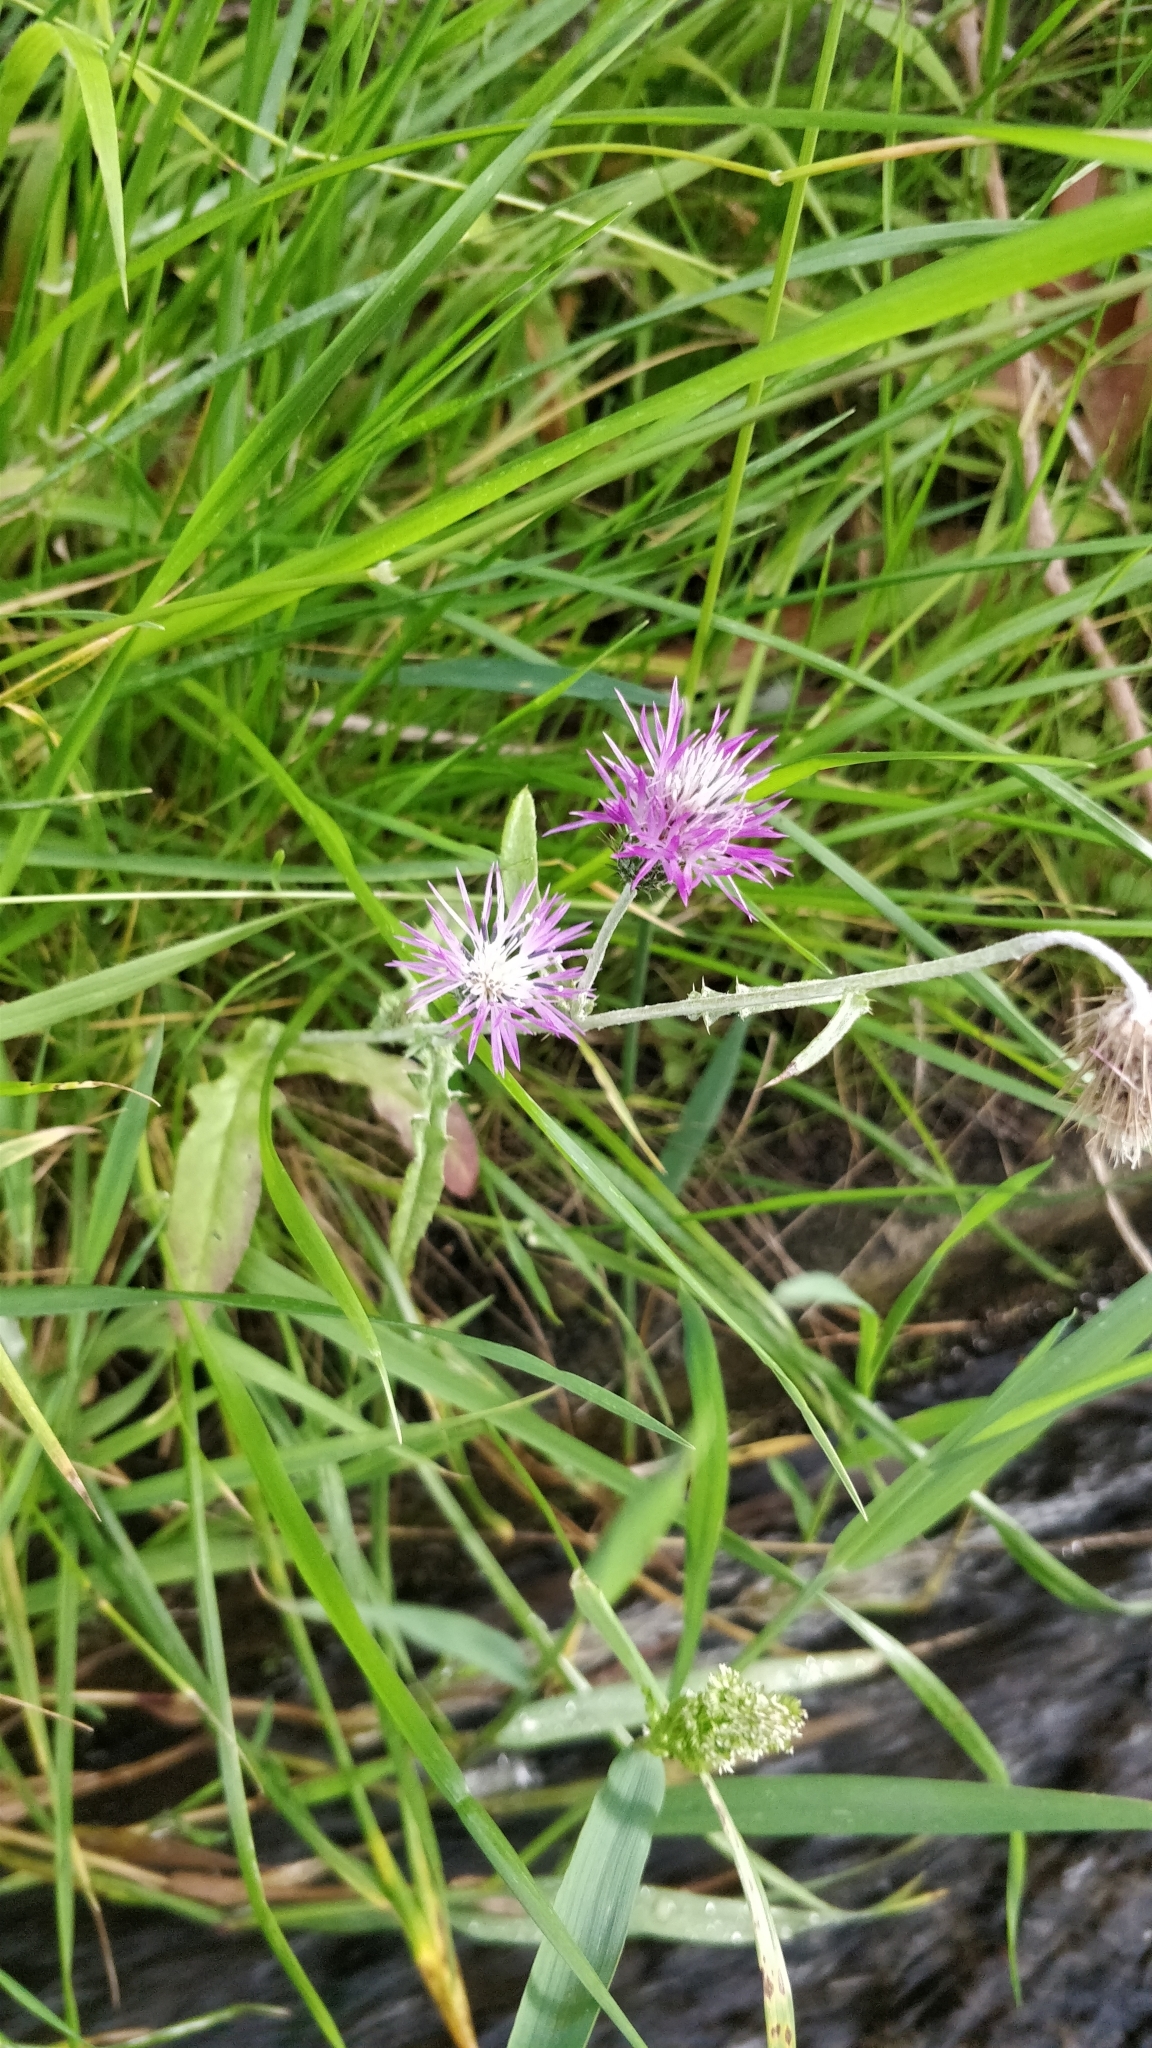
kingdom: Plantae
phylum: Tracheophyta
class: Magnoliopsida
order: Asterales
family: Asteraceae
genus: Galactites
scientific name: Galactites tomentosa
